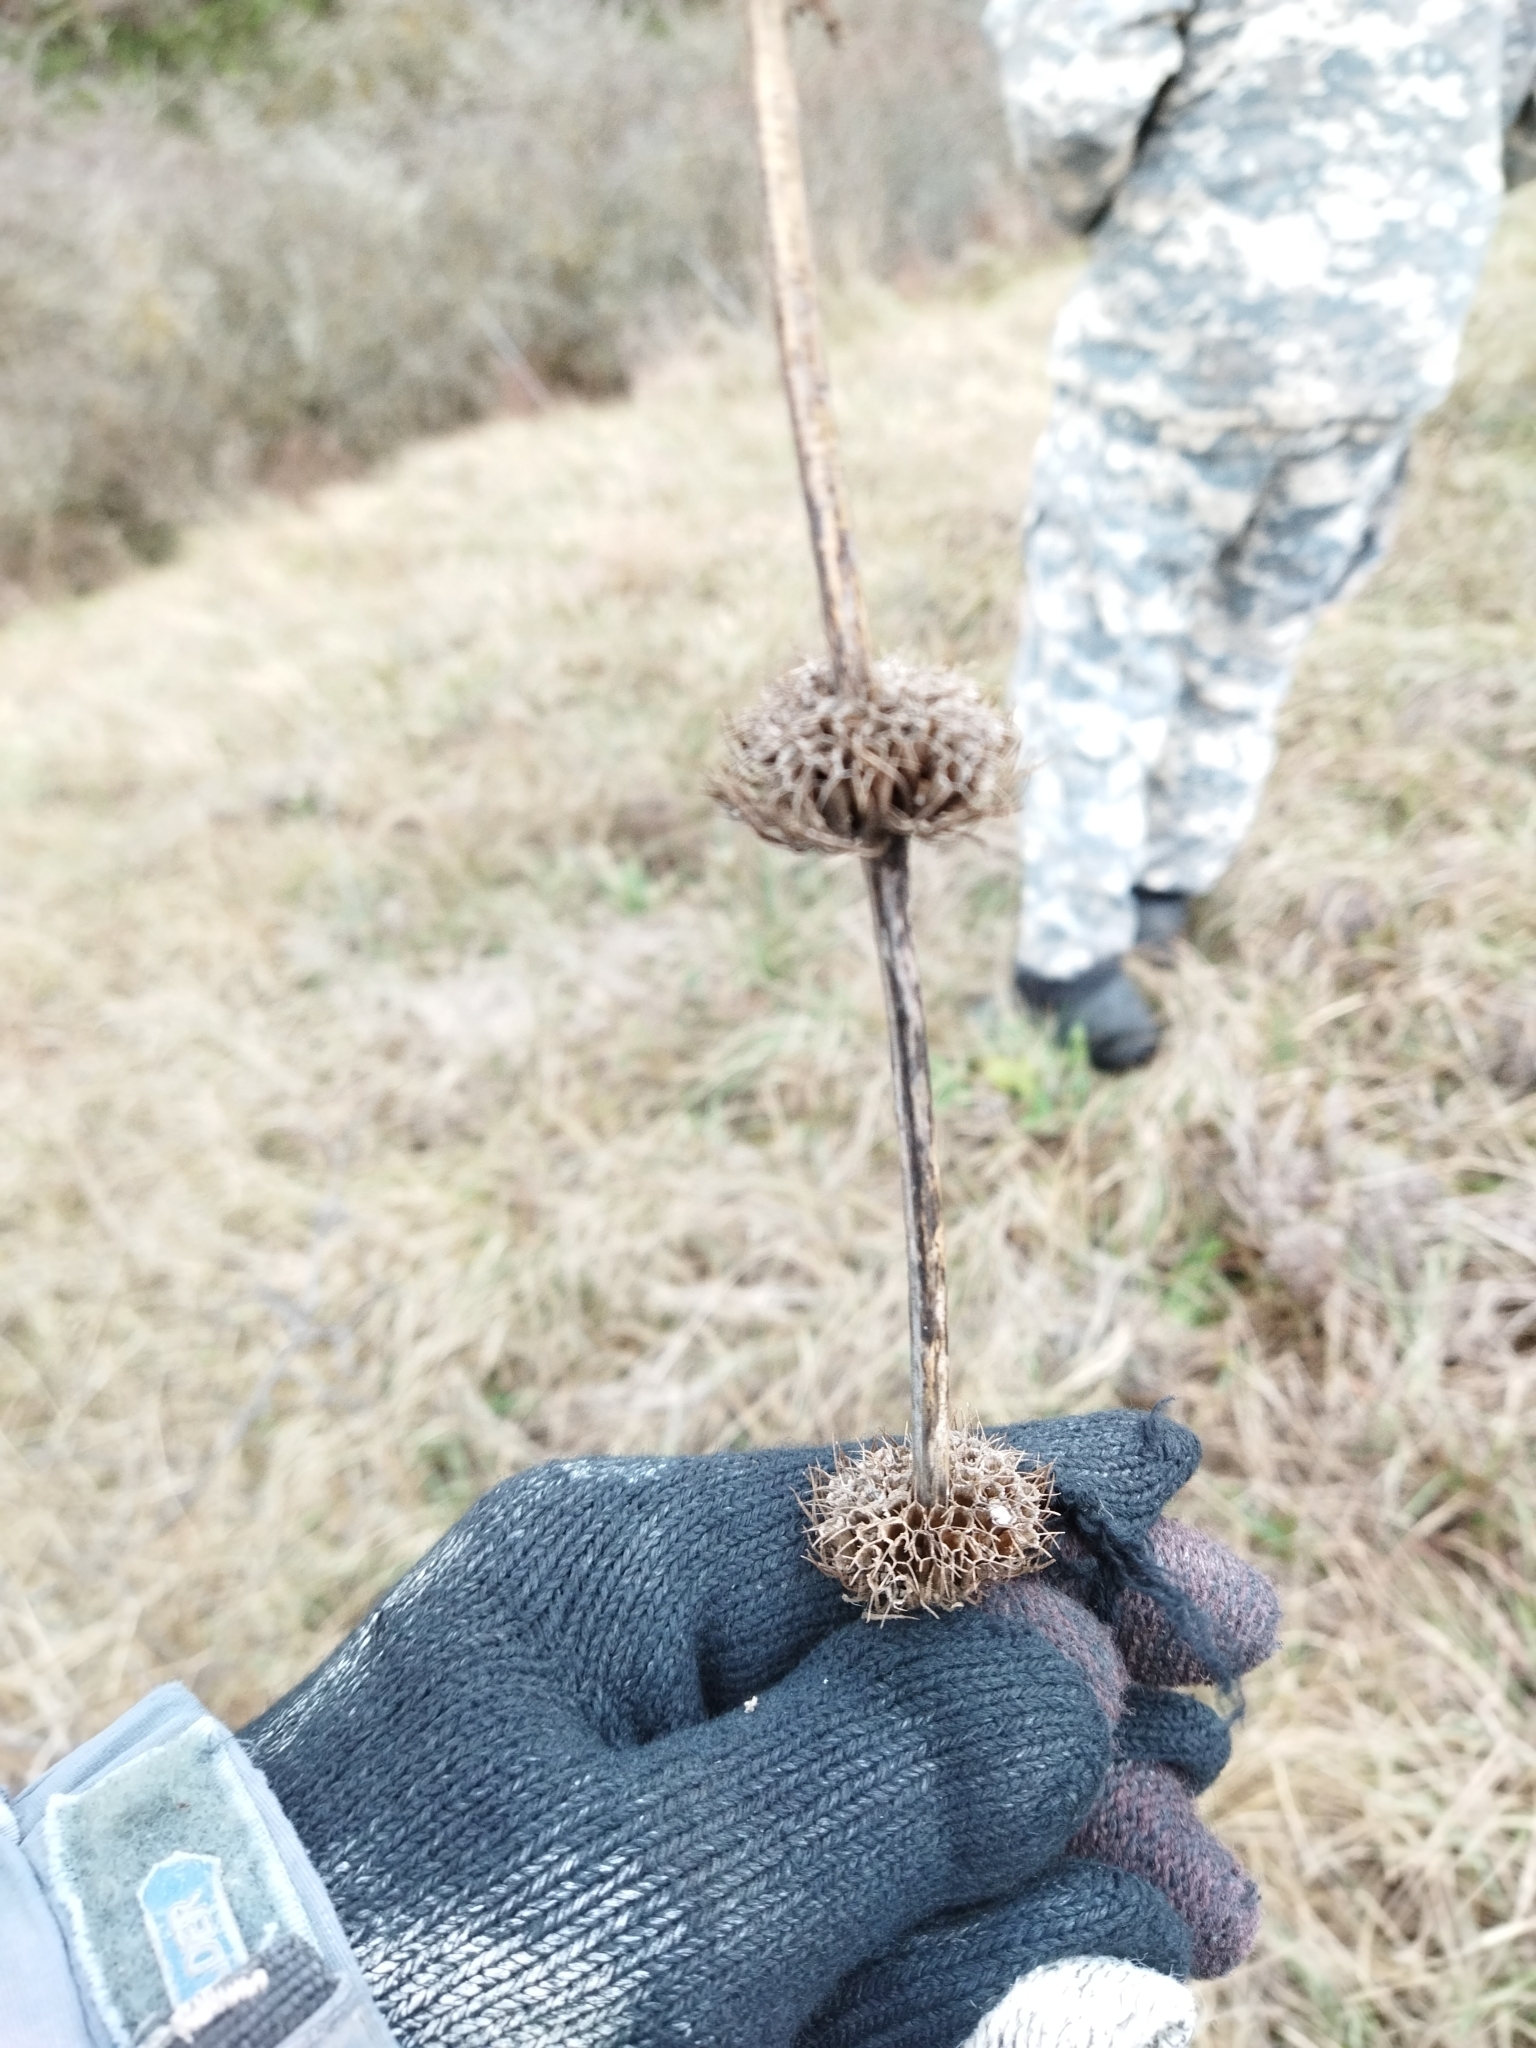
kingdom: Plantae
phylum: Tracheophyta
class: Magnoliopsida
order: Lamiales
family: Lamiaceae
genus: Phlomoides
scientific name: Phlomoides tuberosa
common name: Tuberous jerusalem sage
